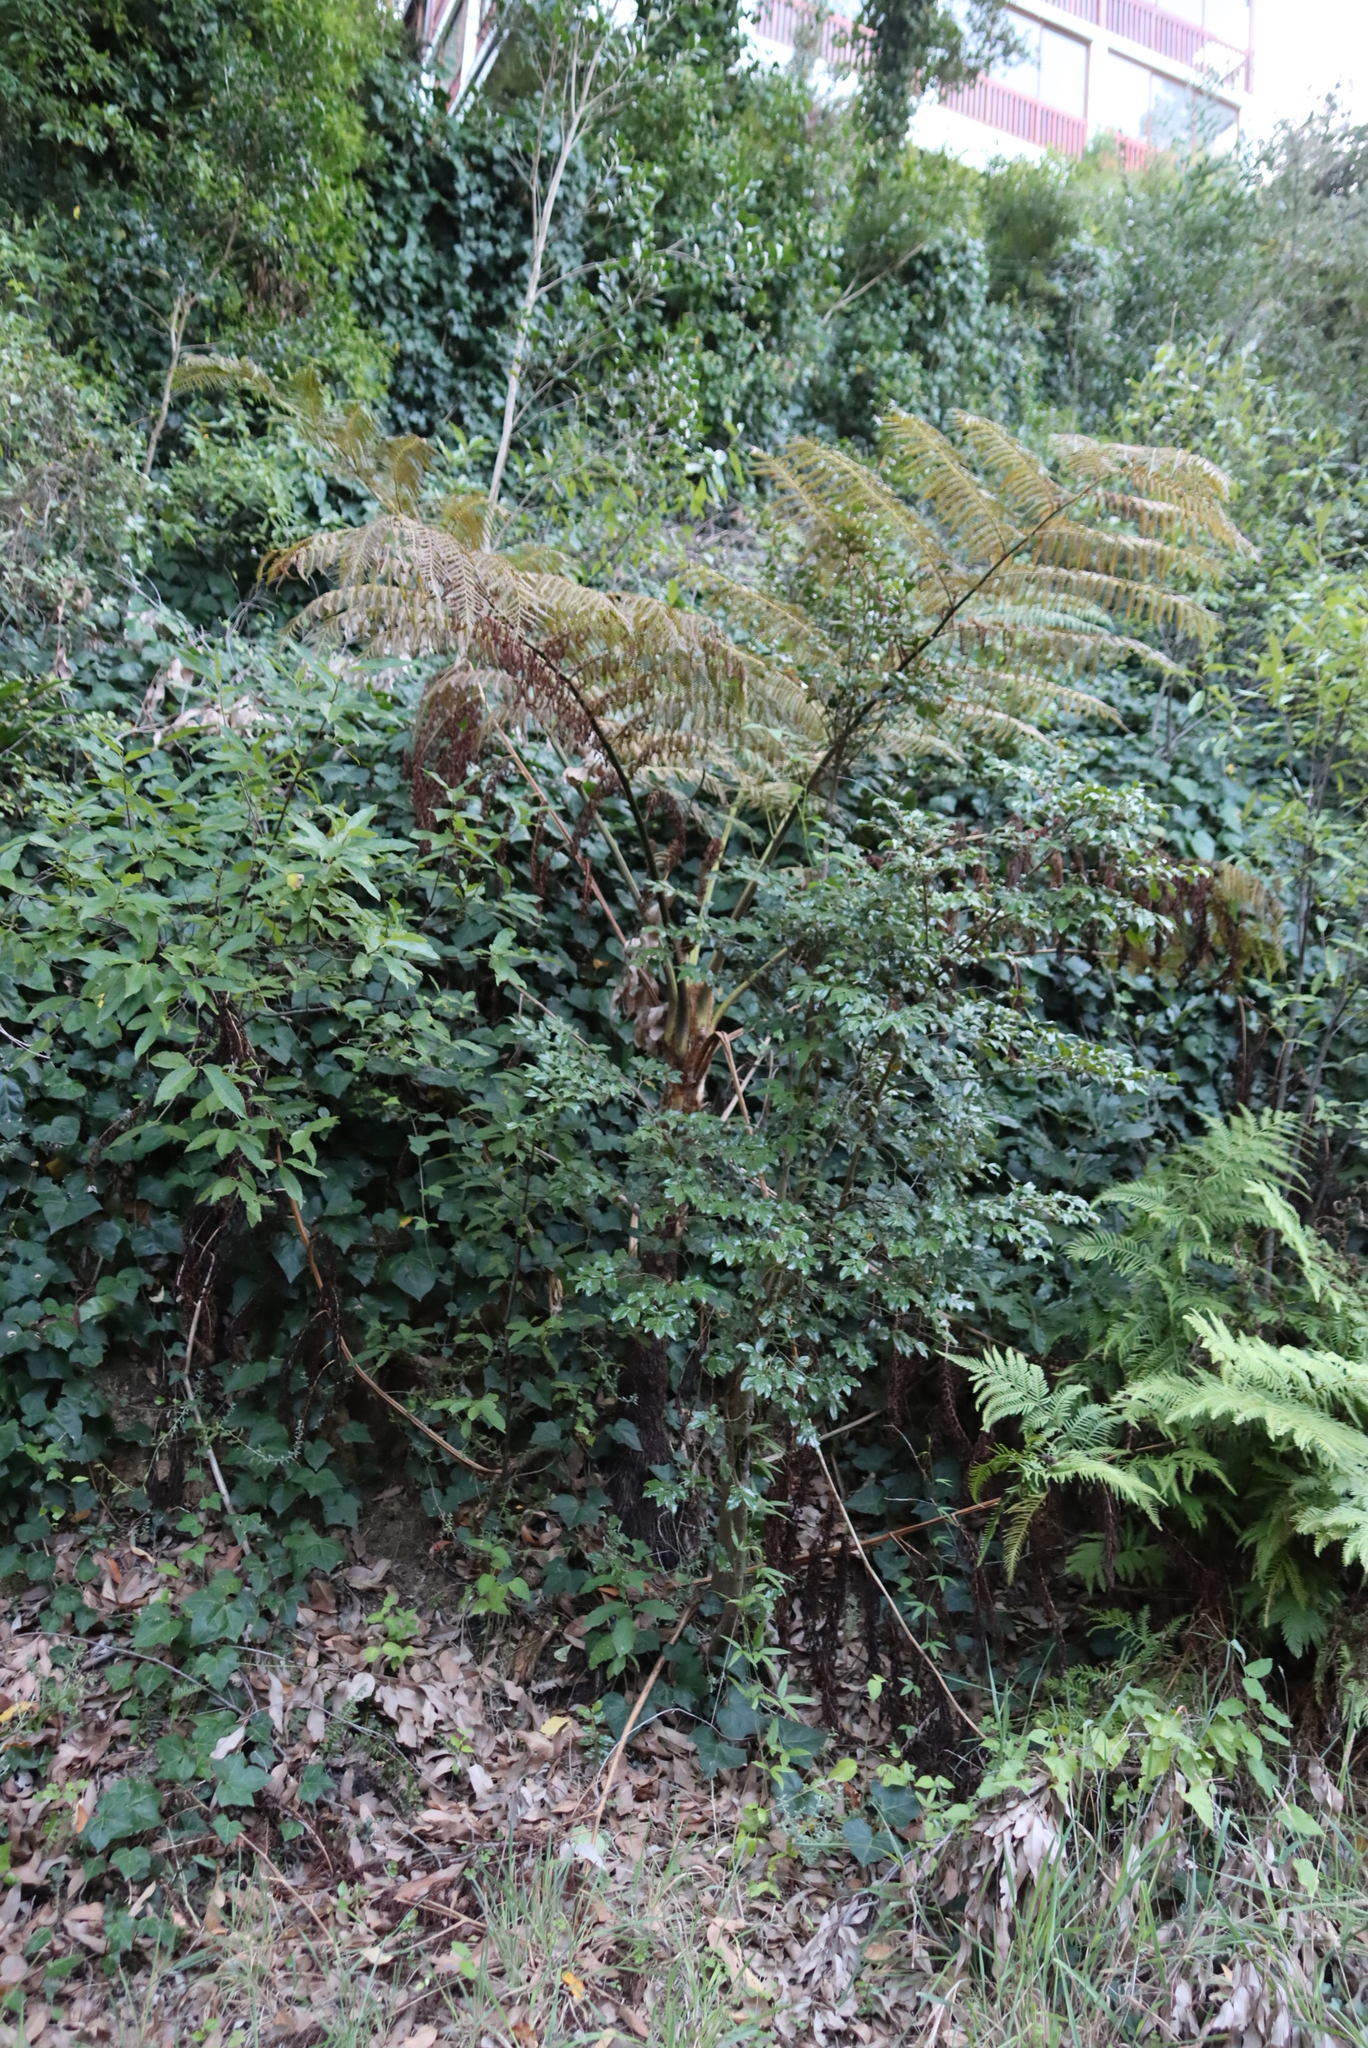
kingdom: Plantae
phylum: Tracheophyta
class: Polypodiopsida
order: Cyatheales
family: Cyatheaceae
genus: Sphaeropteris
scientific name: Sphaeropteris cooperi
